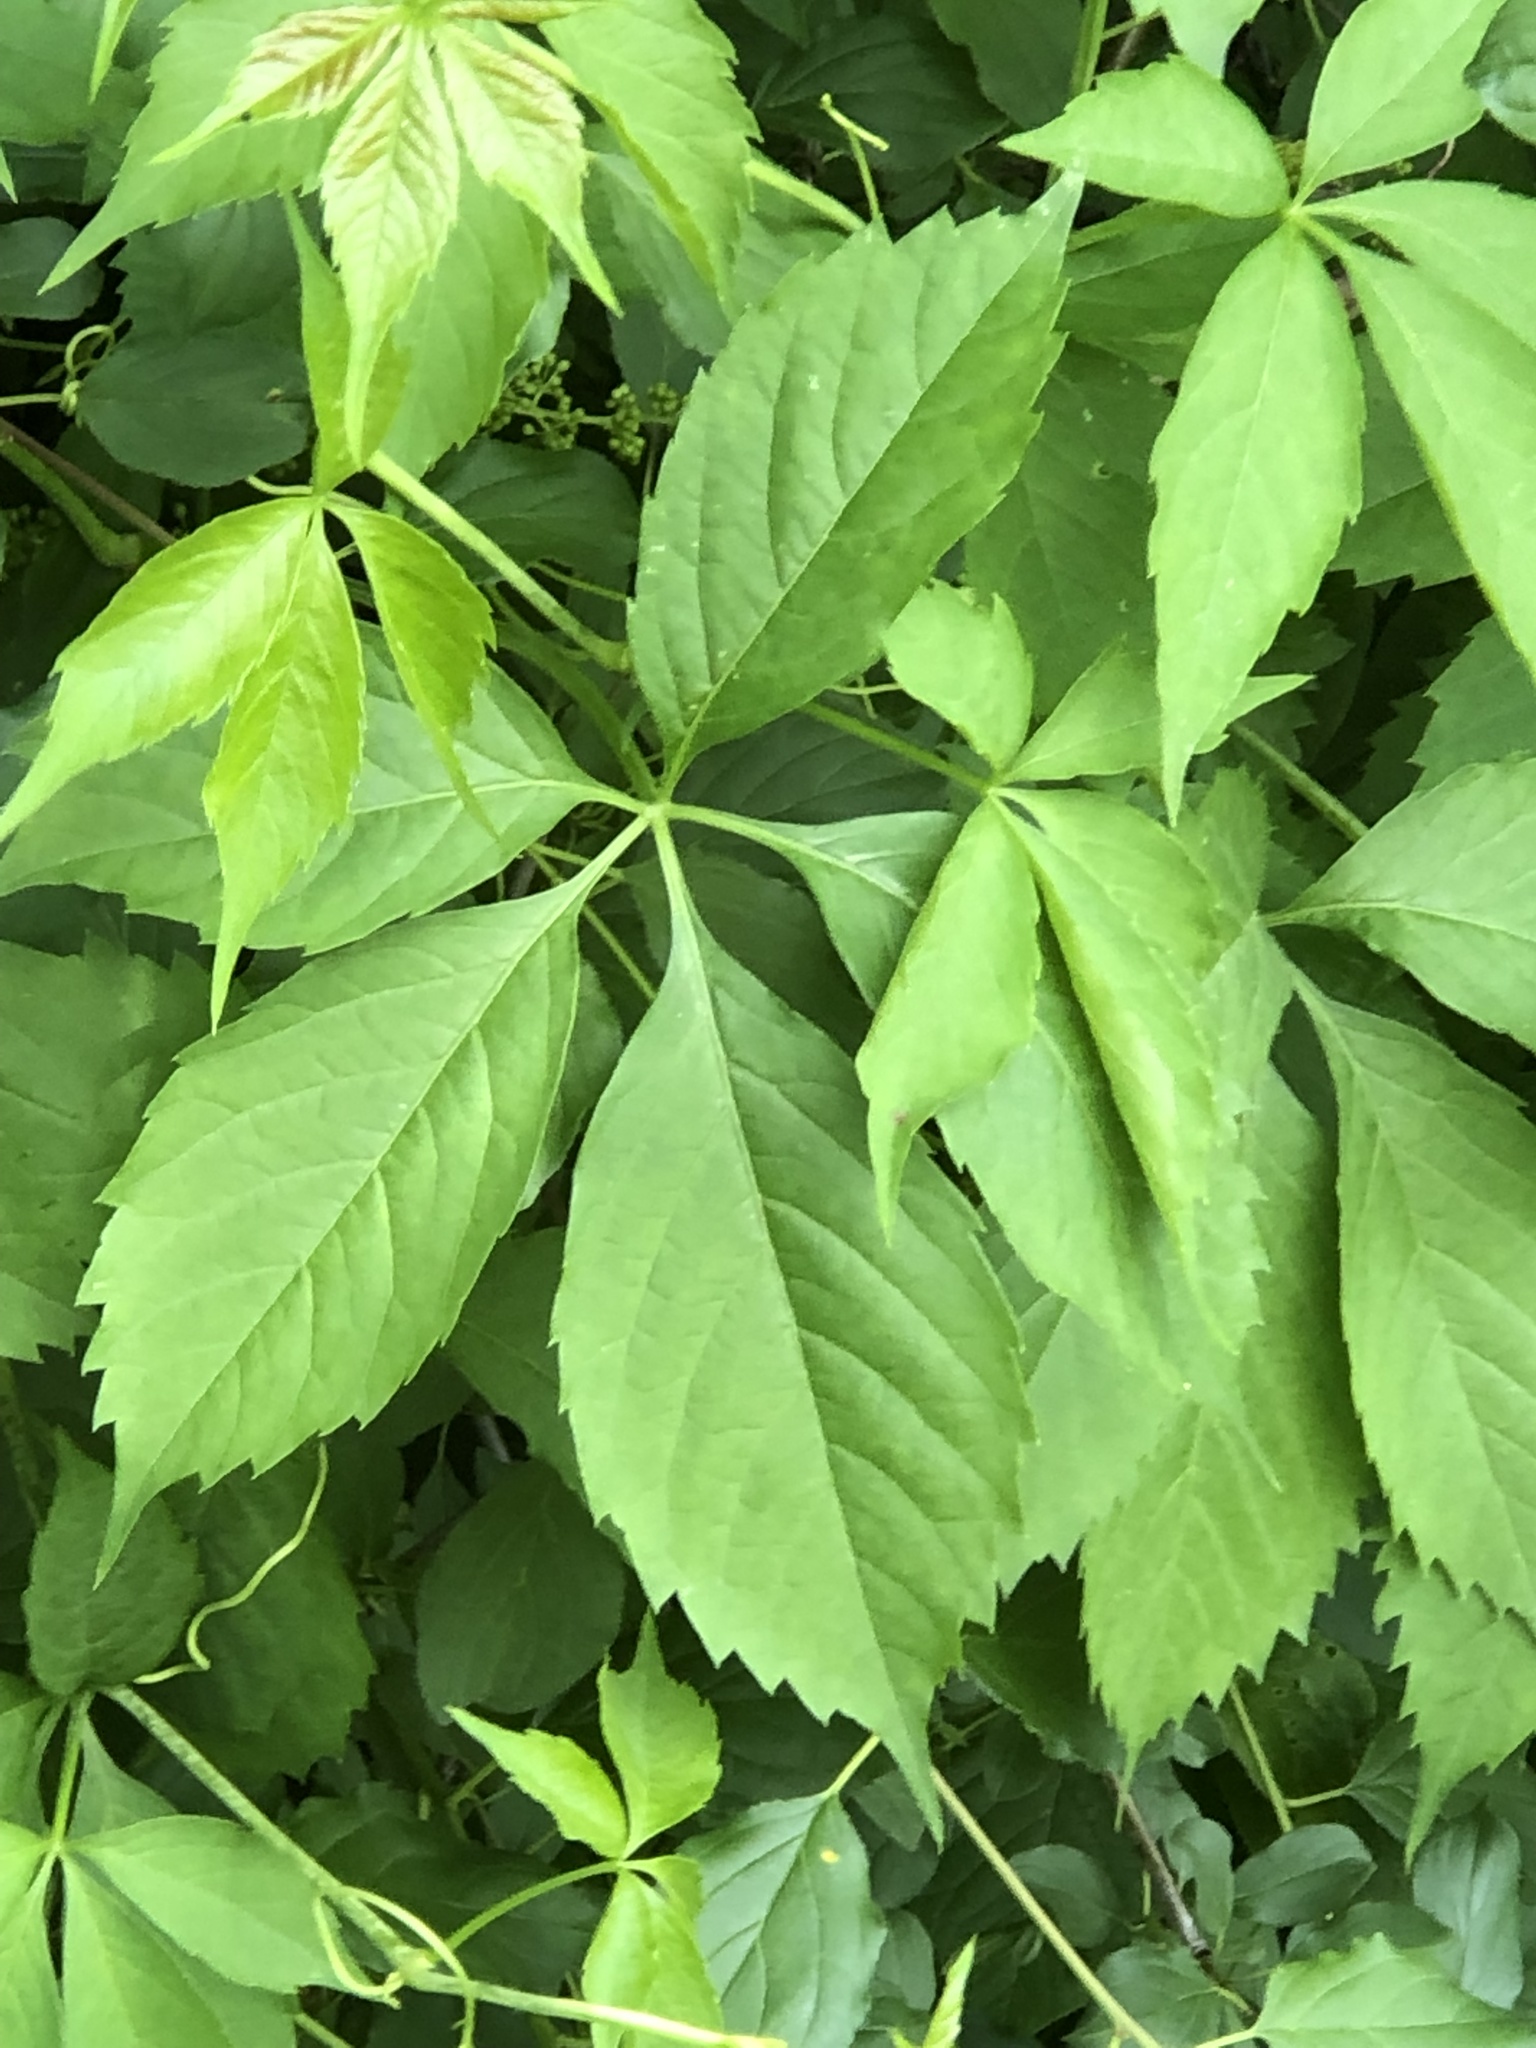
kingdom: Plantae
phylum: Tracheophyta
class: Magnoliopsida
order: Vitales
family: Vitaceae
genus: Parthenocissus
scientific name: Parthenocissus inserta
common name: False virginia-creeper
